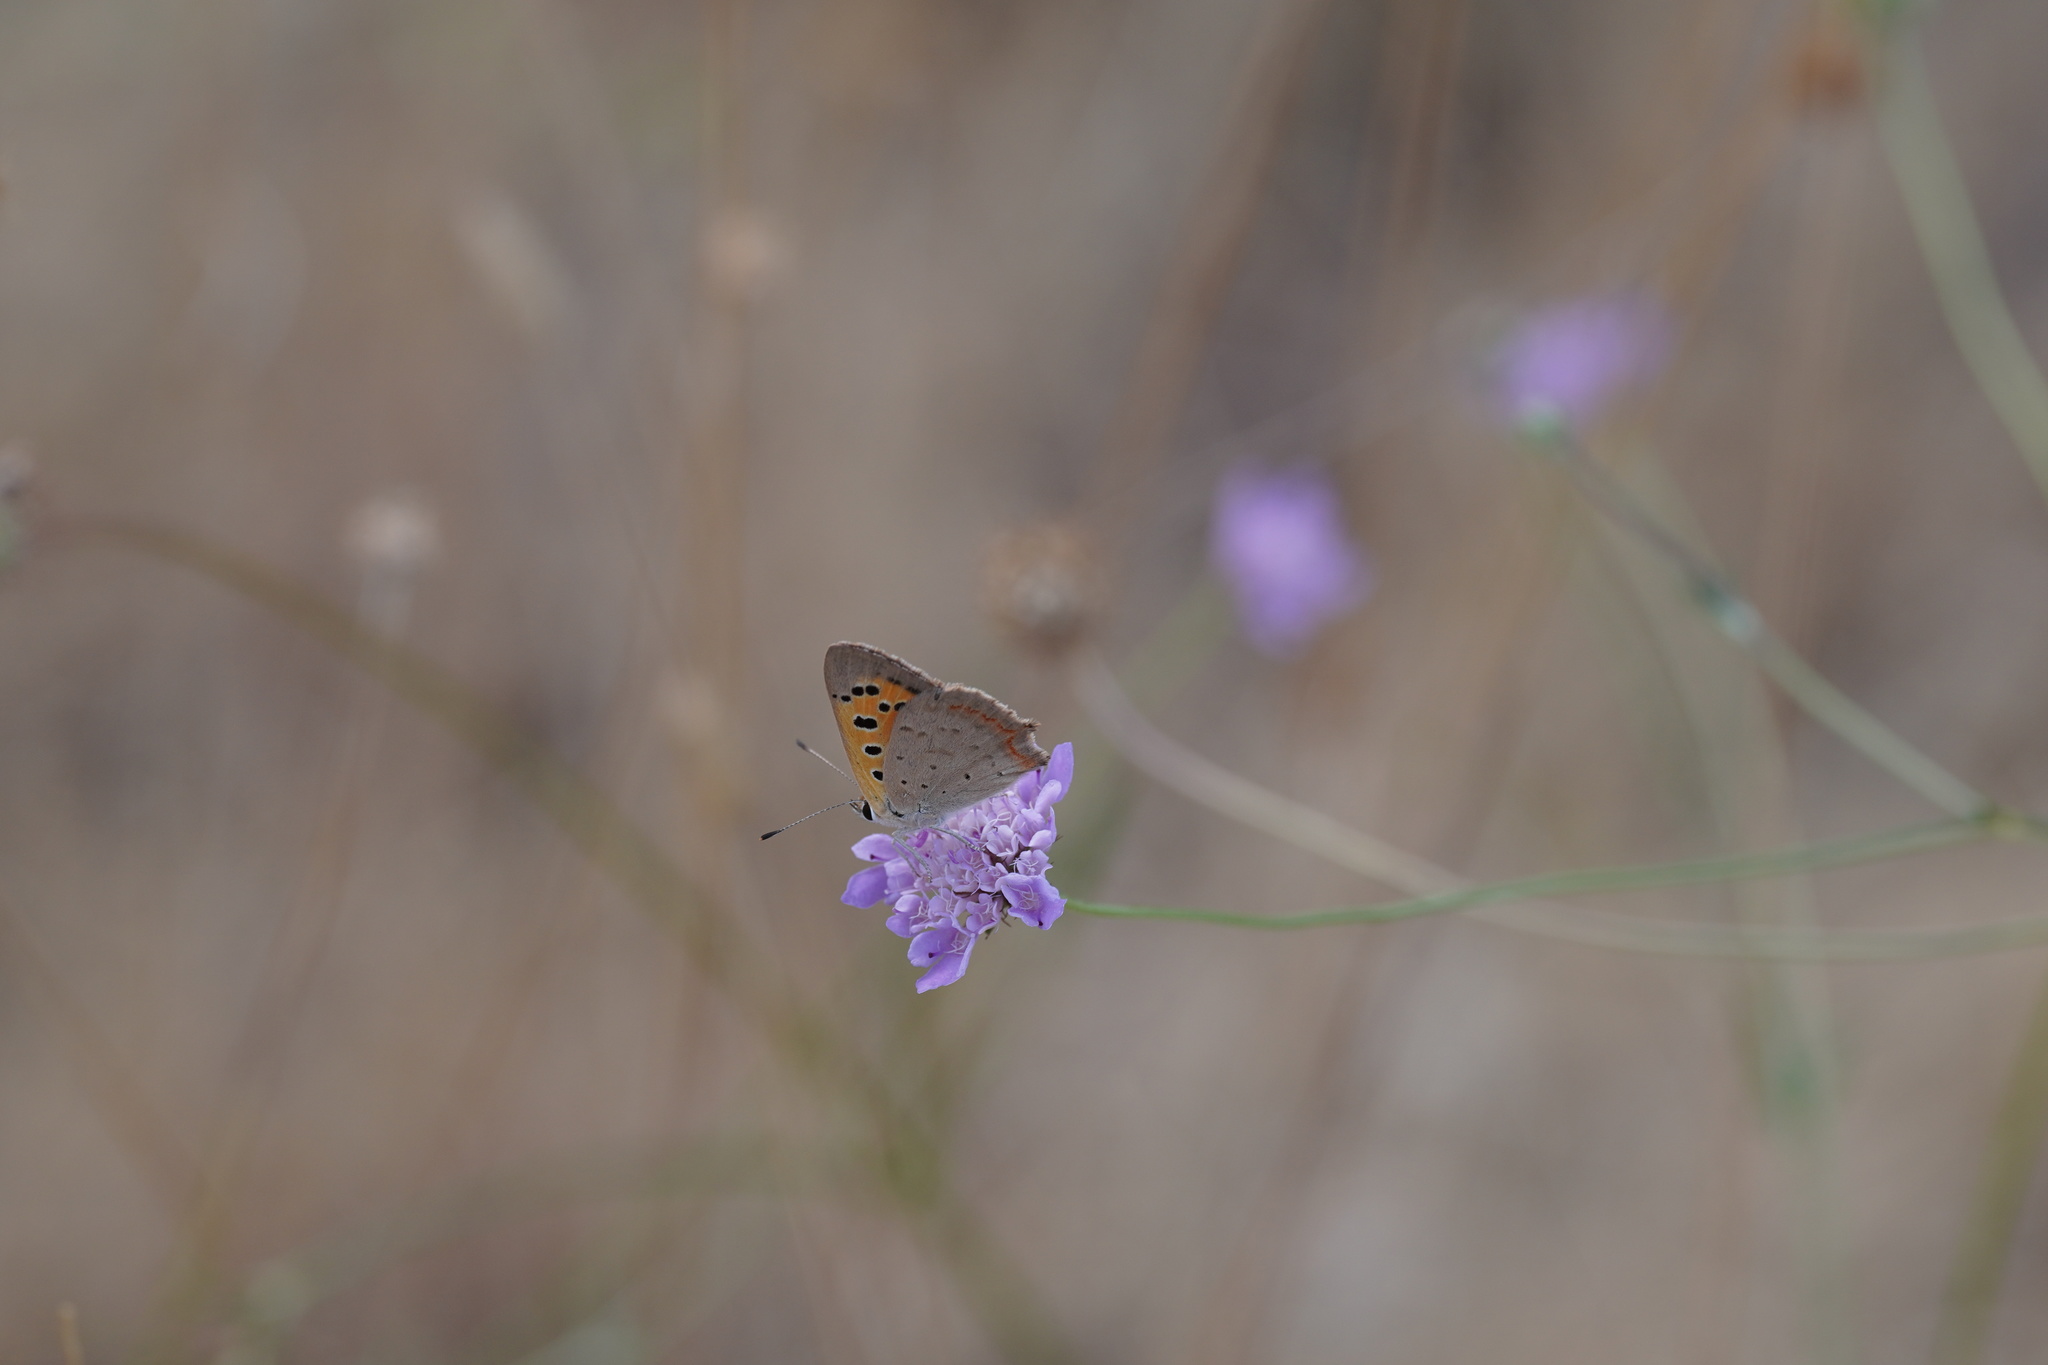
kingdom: Animalia
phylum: Arthropoda
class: Insecta
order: Lepidoptera
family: Lycaenidae
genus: Lycaena
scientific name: Lycaena phlaeas
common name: Small copper
